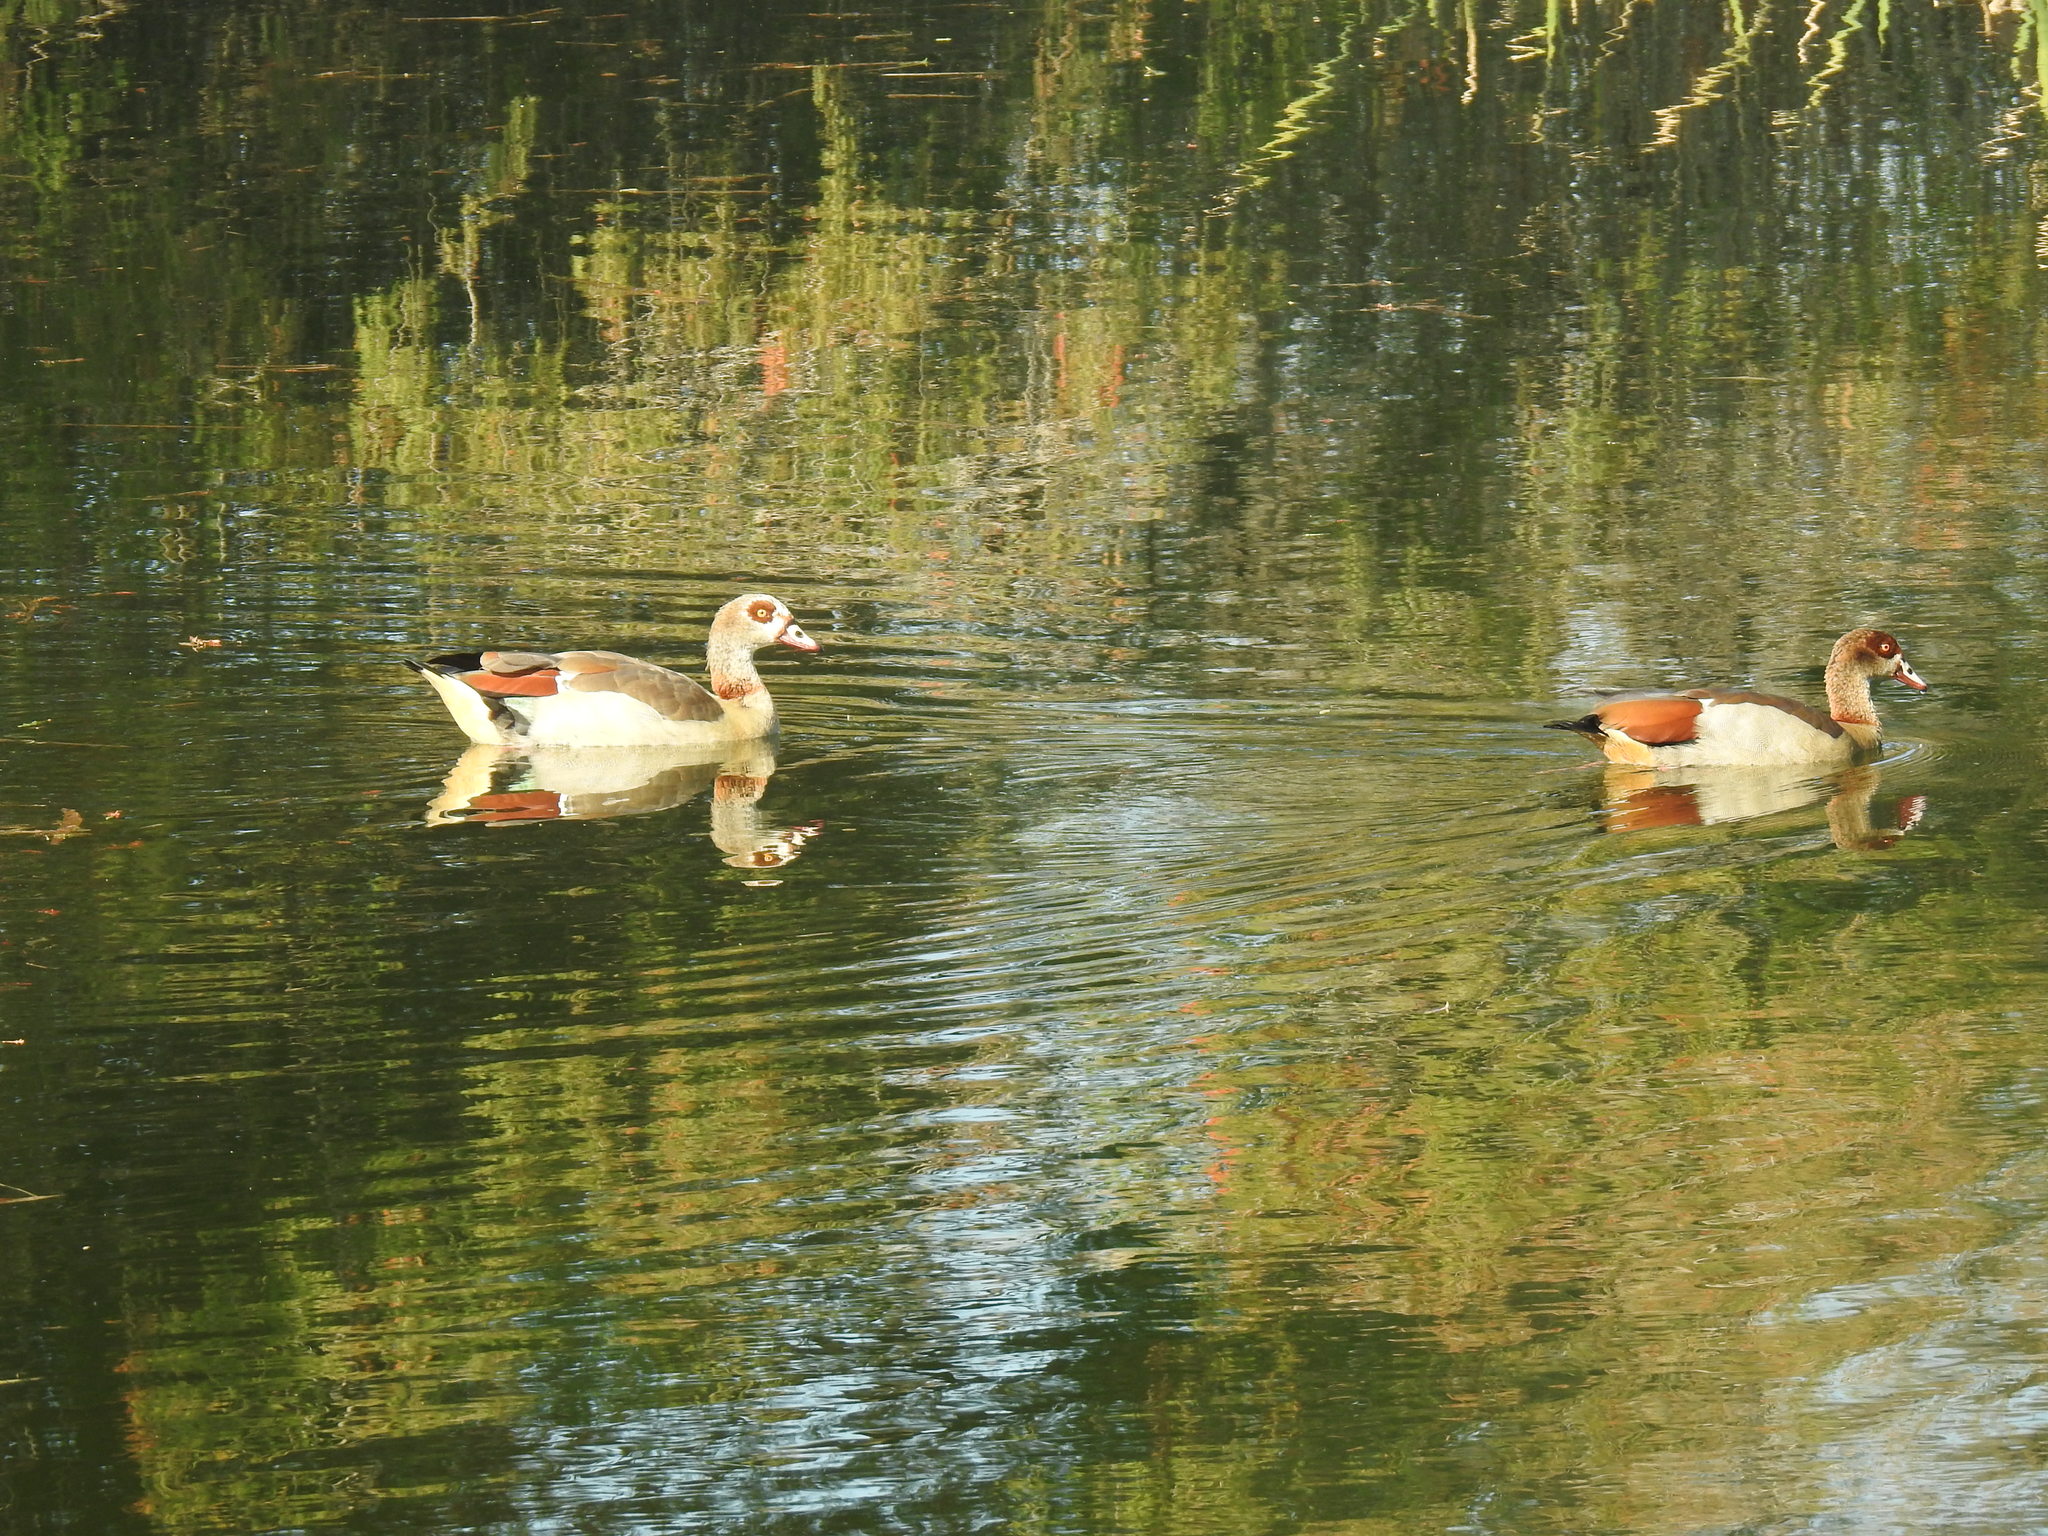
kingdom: Animalia
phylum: Chordata
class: Aves
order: Anseriformes
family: Anatidae
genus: Alopochen
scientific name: Alopochen aegyptiaca
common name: Egyptian goose
